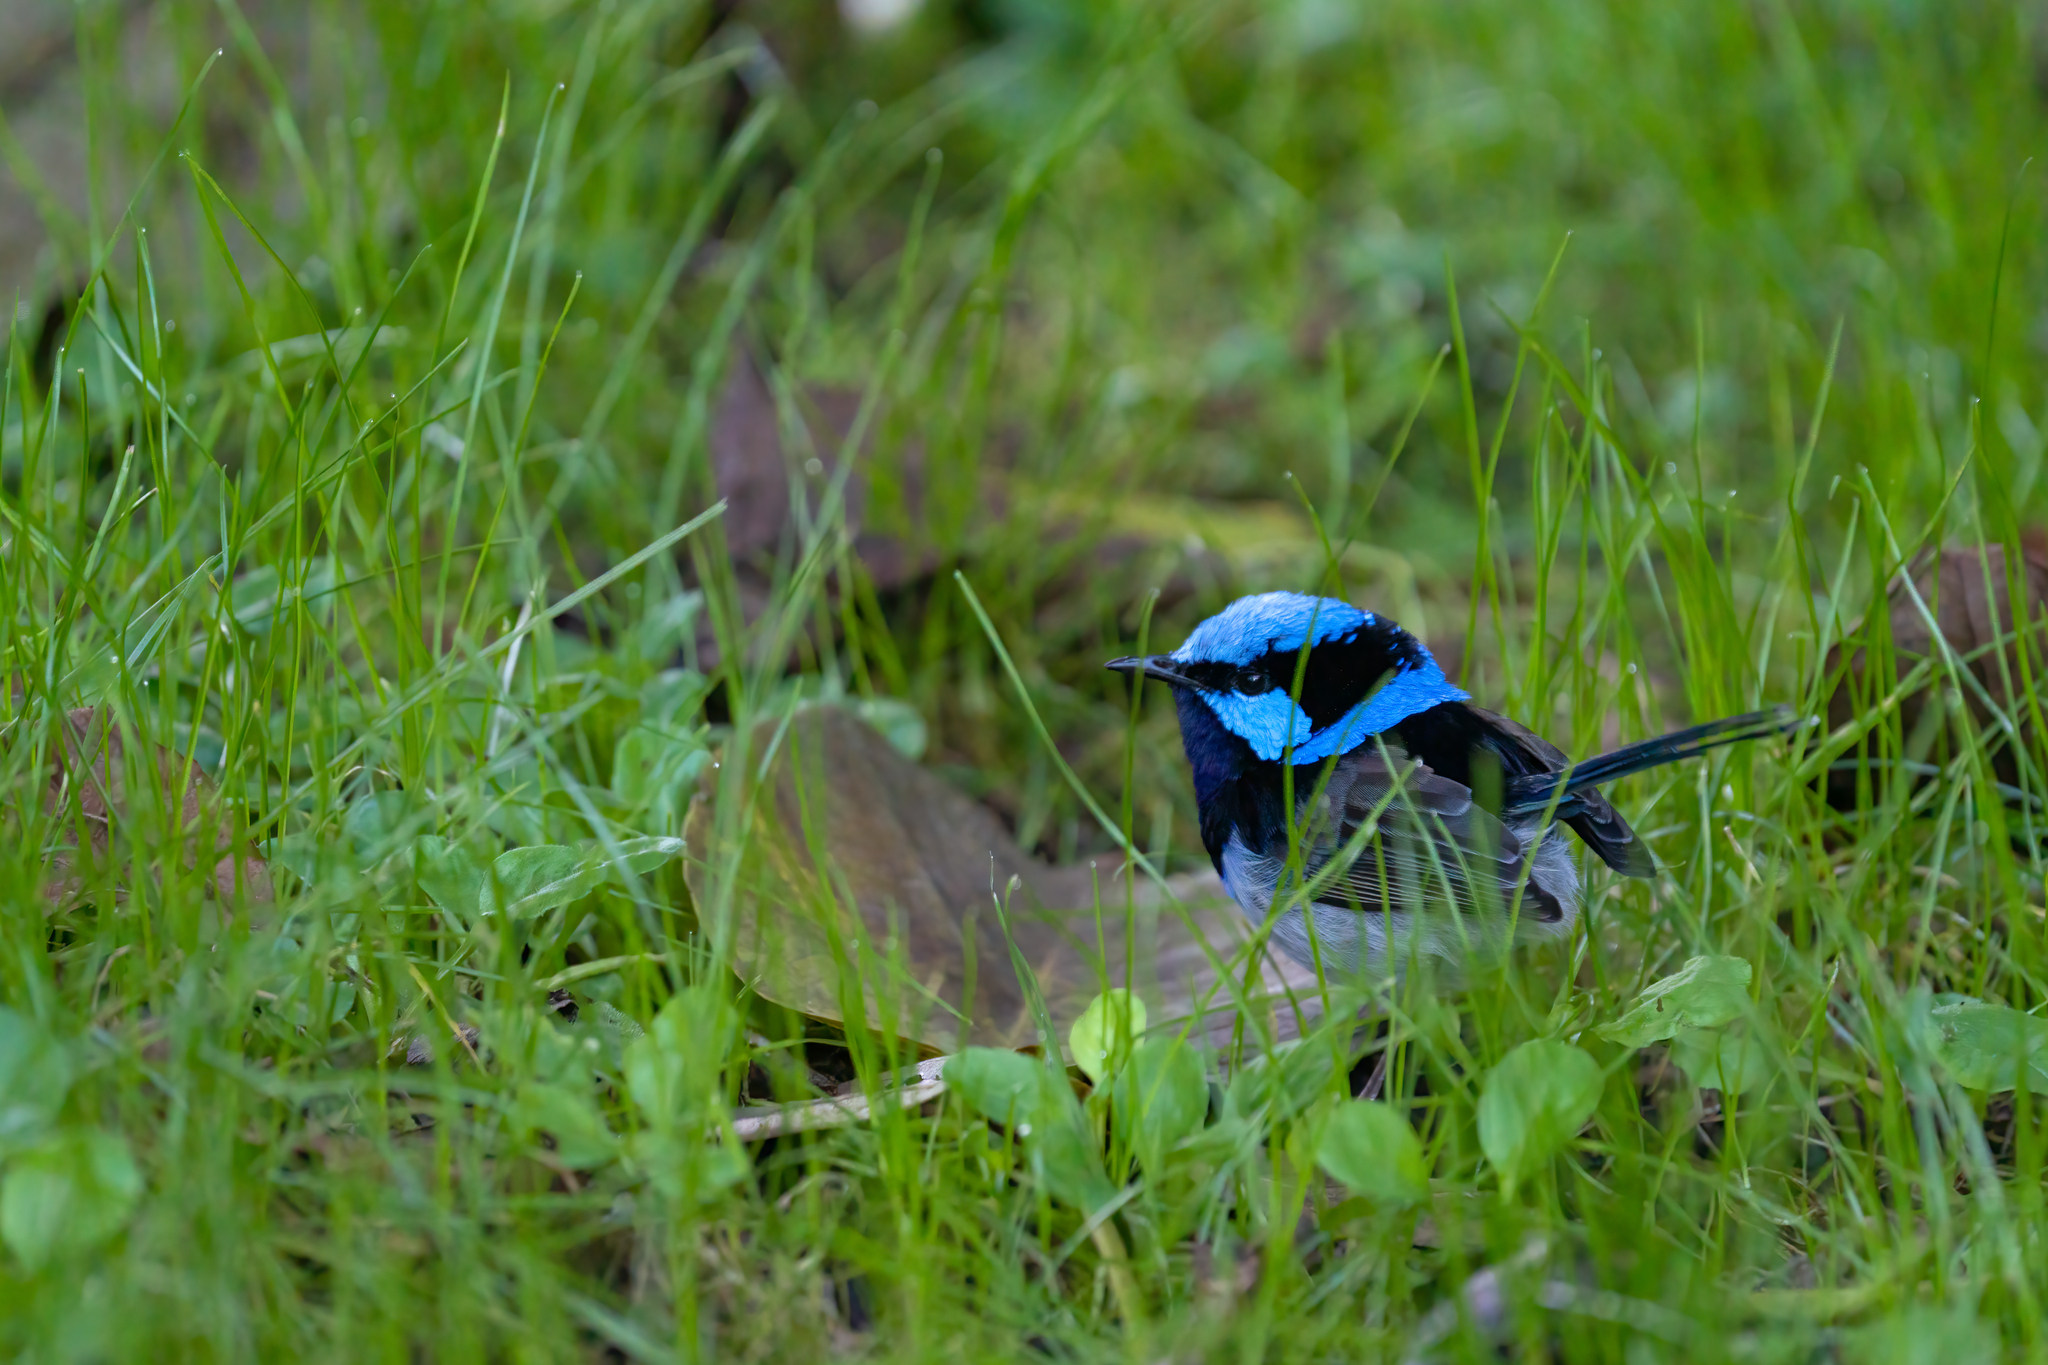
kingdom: Animalia
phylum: Chordata
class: Aves
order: Passeriformes
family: Maluridae
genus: Malurus
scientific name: Malurus cyaneus
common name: Superb fairywren
